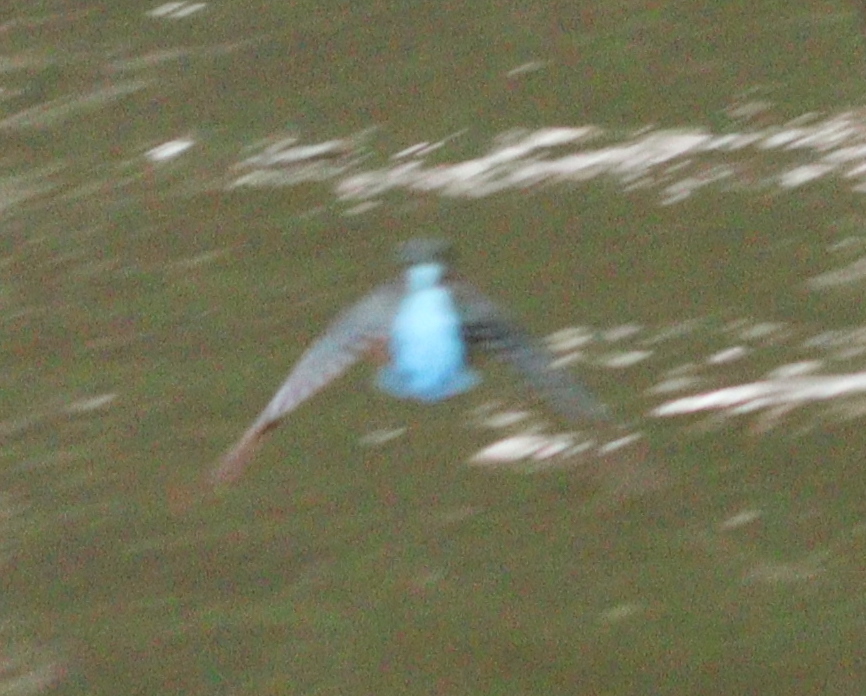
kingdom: Animalia
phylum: Chordata
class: Aves
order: Coraciiformes
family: Alcedinidae
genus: Alcedo
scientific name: Alcedo atthis
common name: Common kingfisher
